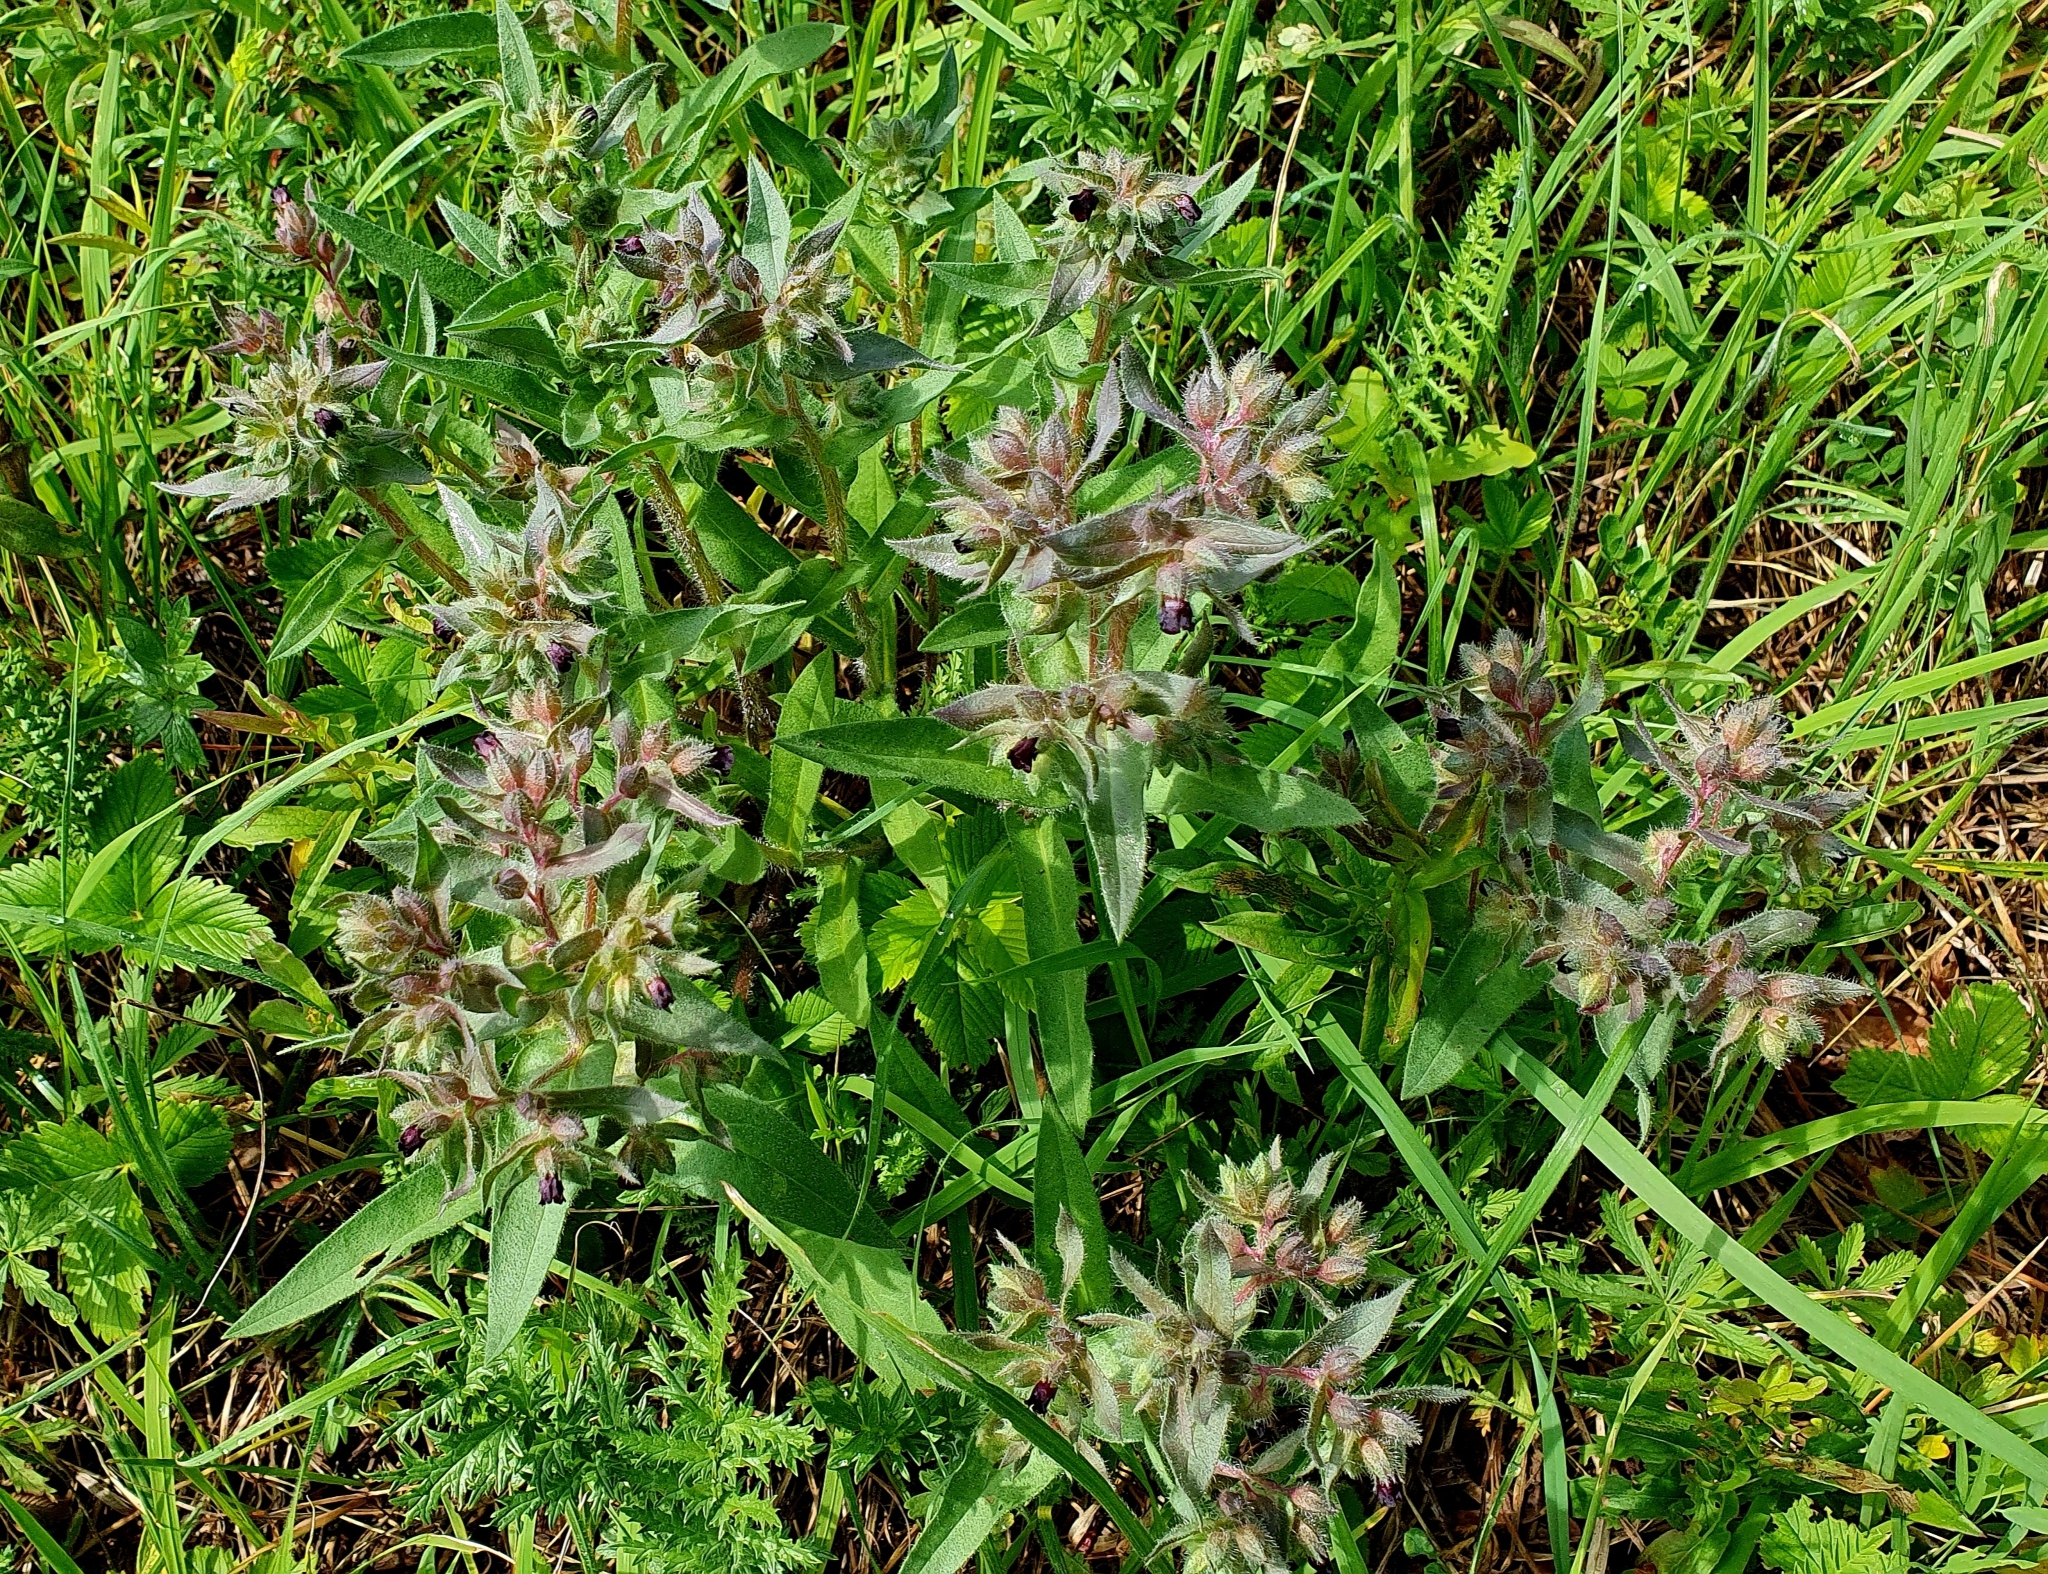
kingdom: Plantae
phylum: Tracheophyta
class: Magnoliopsida
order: Boraginales
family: Boraginaceae
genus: Nonea
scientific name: Nonea pulla
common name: Brown nonea
